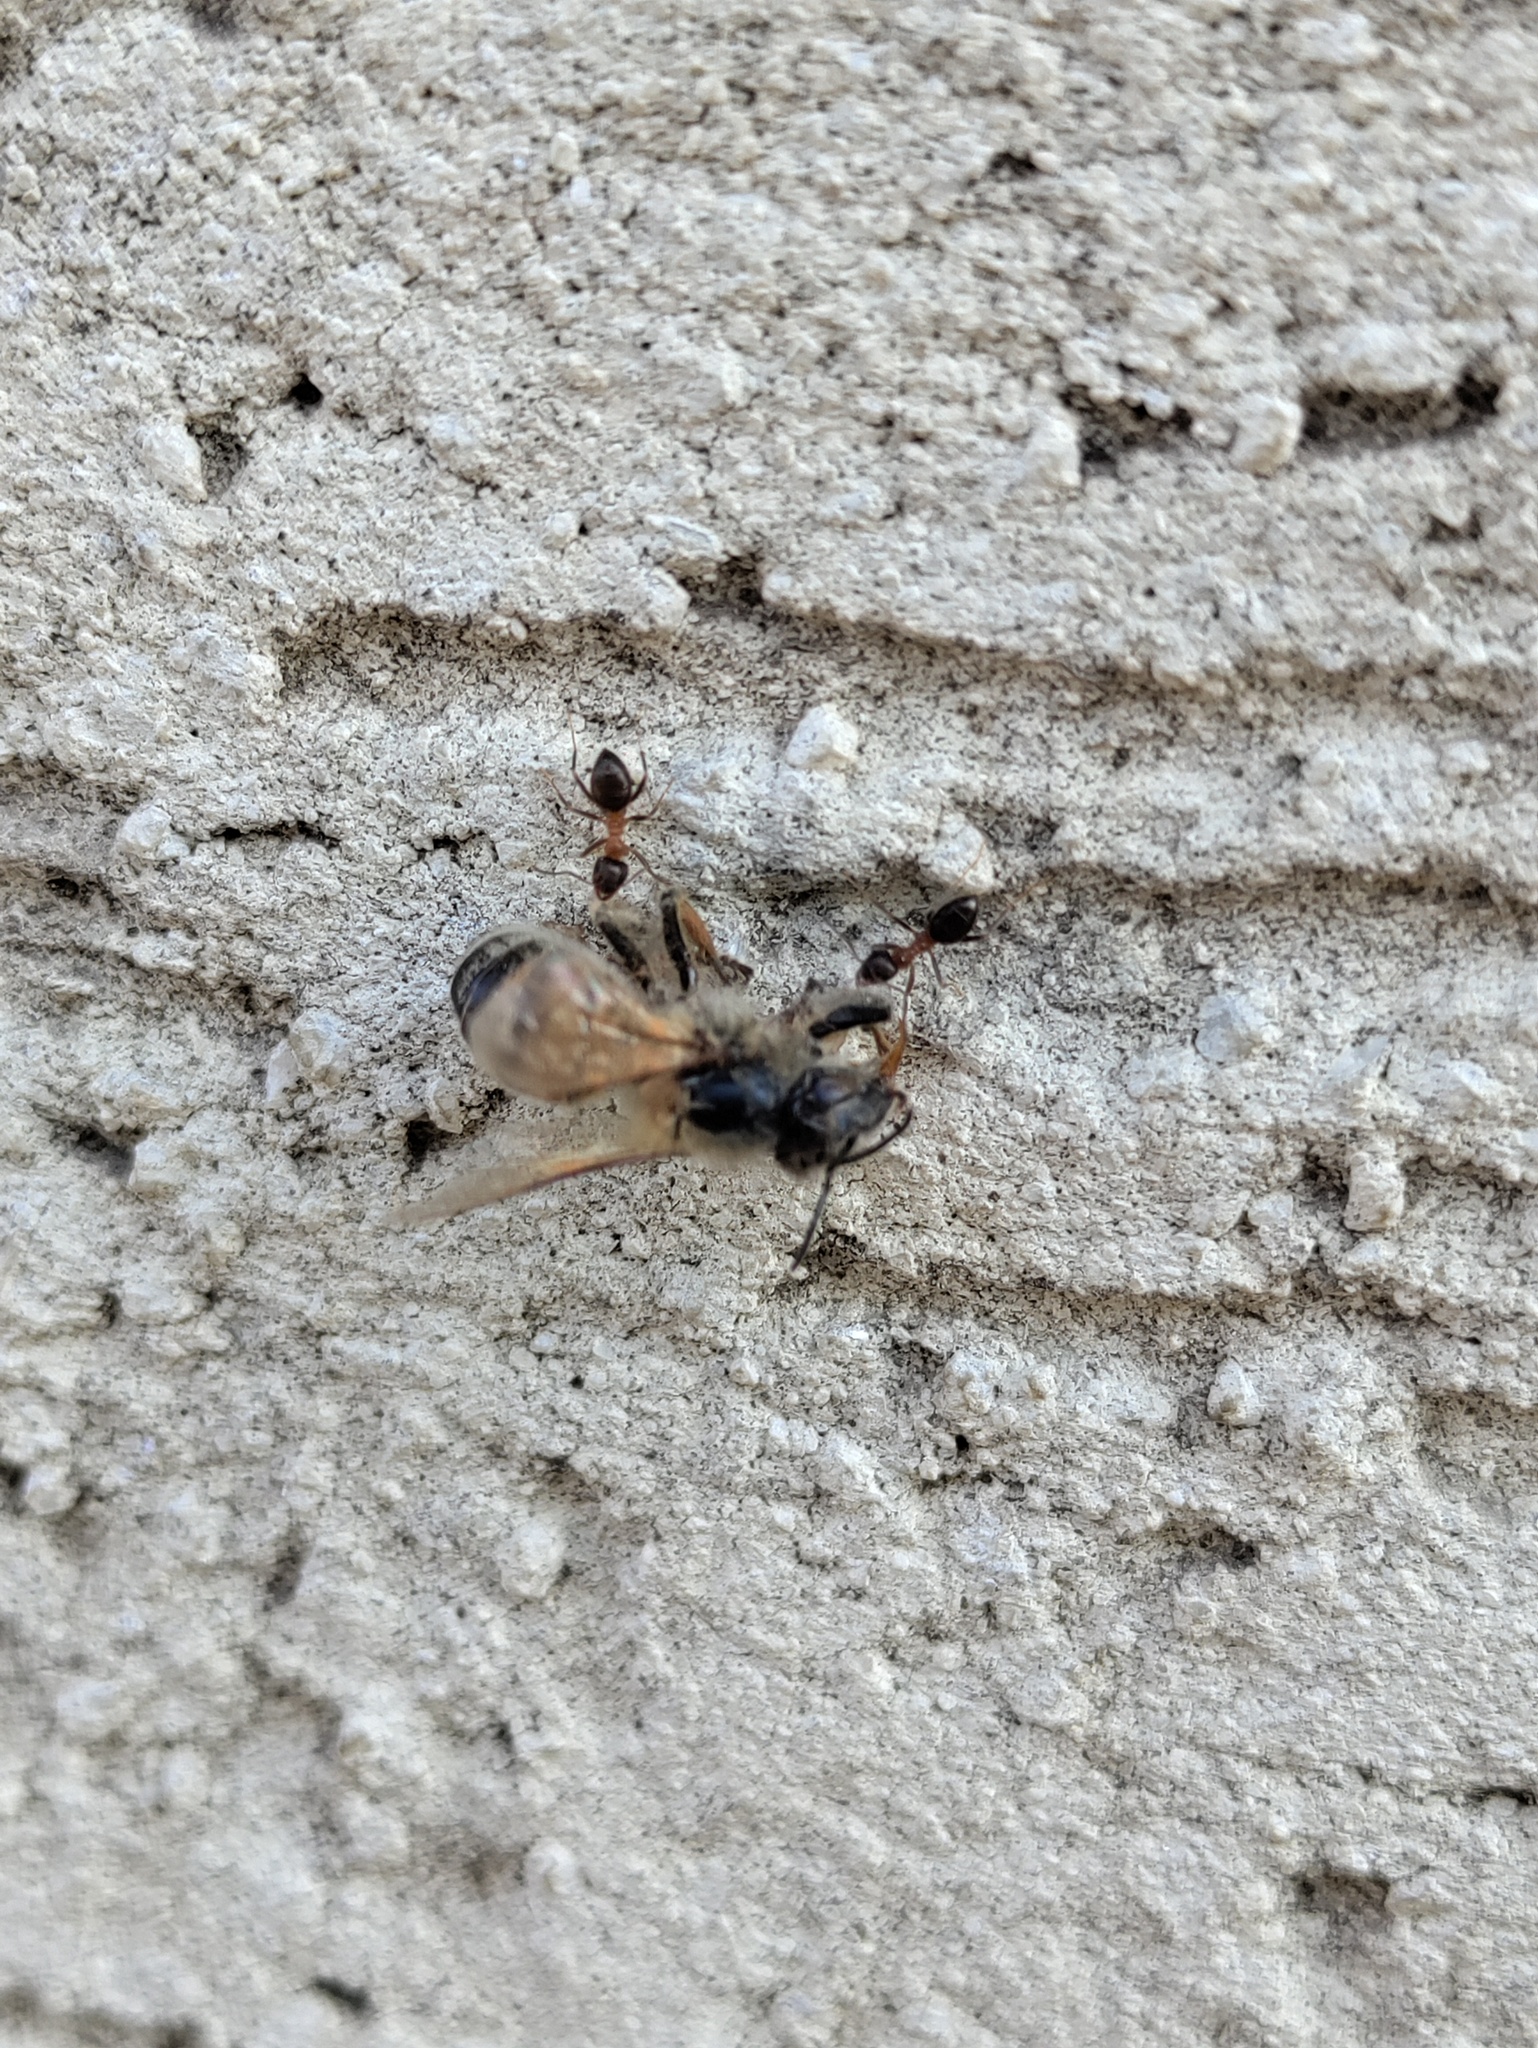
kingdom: Animalia
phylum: Arthropoda
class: Insecta
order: Hymenoptera
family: Formicidae
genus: Lasius
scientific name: Lasius emarginatus
